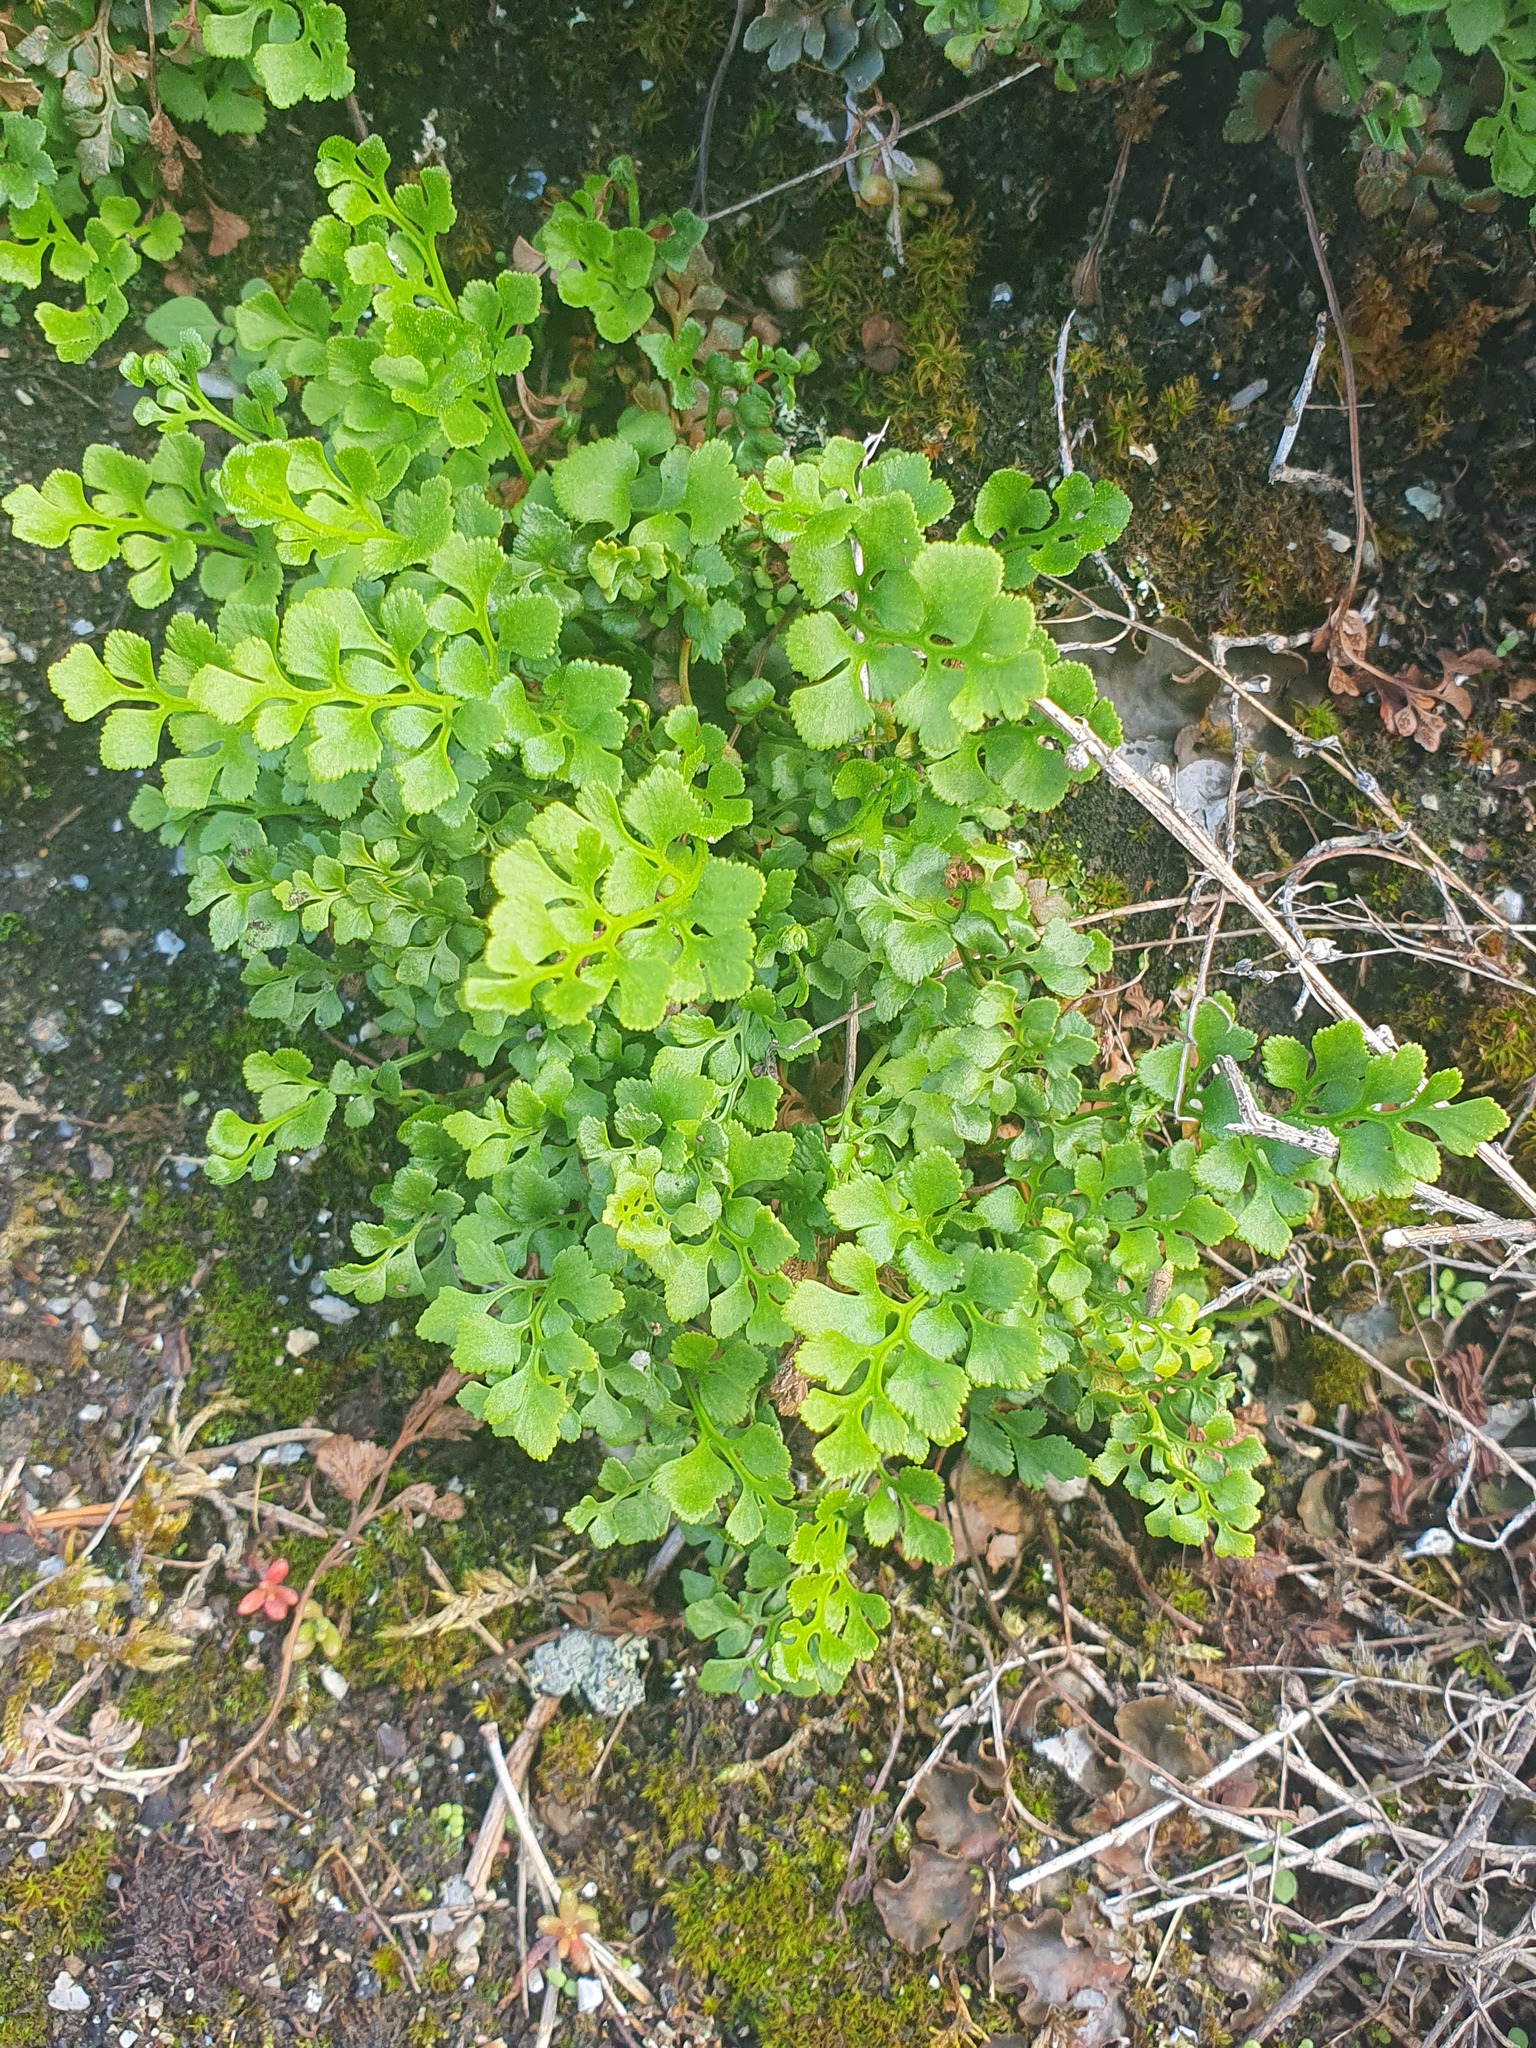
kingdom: Plantae
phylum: Tracheophyta
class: Polypodiopsida
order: Polypodiales
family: Aspleniaceae
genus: Asplenium
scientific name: Asplenium ruta-muraria
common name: Wall-rue
